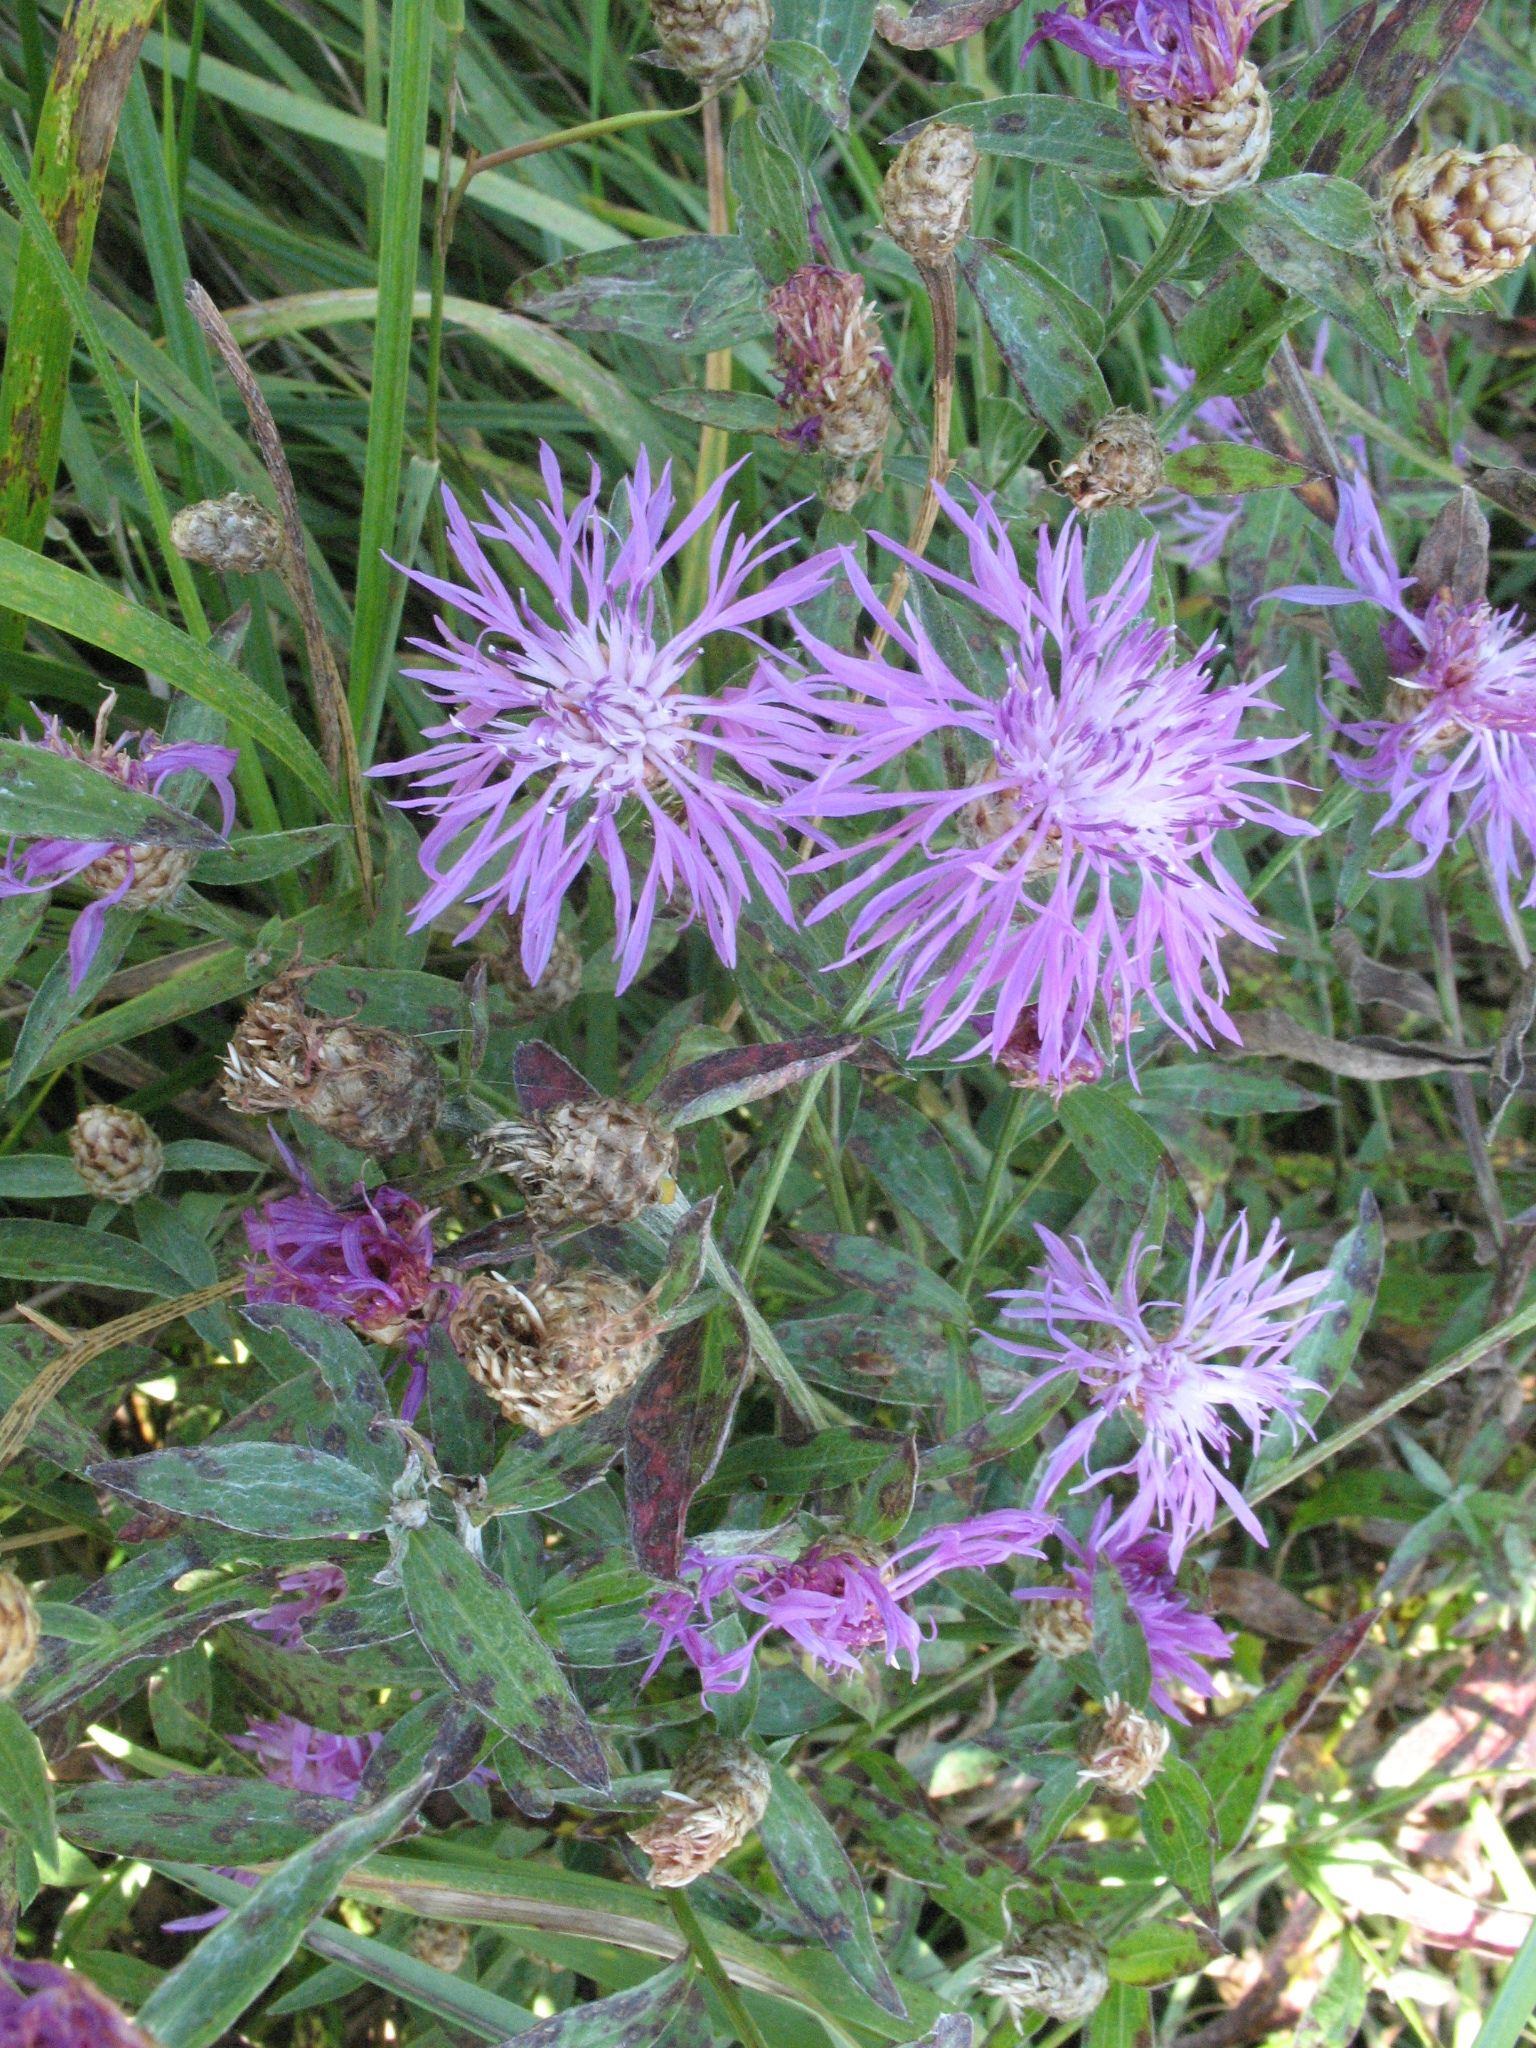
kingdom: Plantae
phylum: Tracheophyta
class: Magnoliopsida
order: Asterales
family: Asteraceae
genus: Centaurea
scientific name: Centaurea jacea
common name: Brown knapweed
